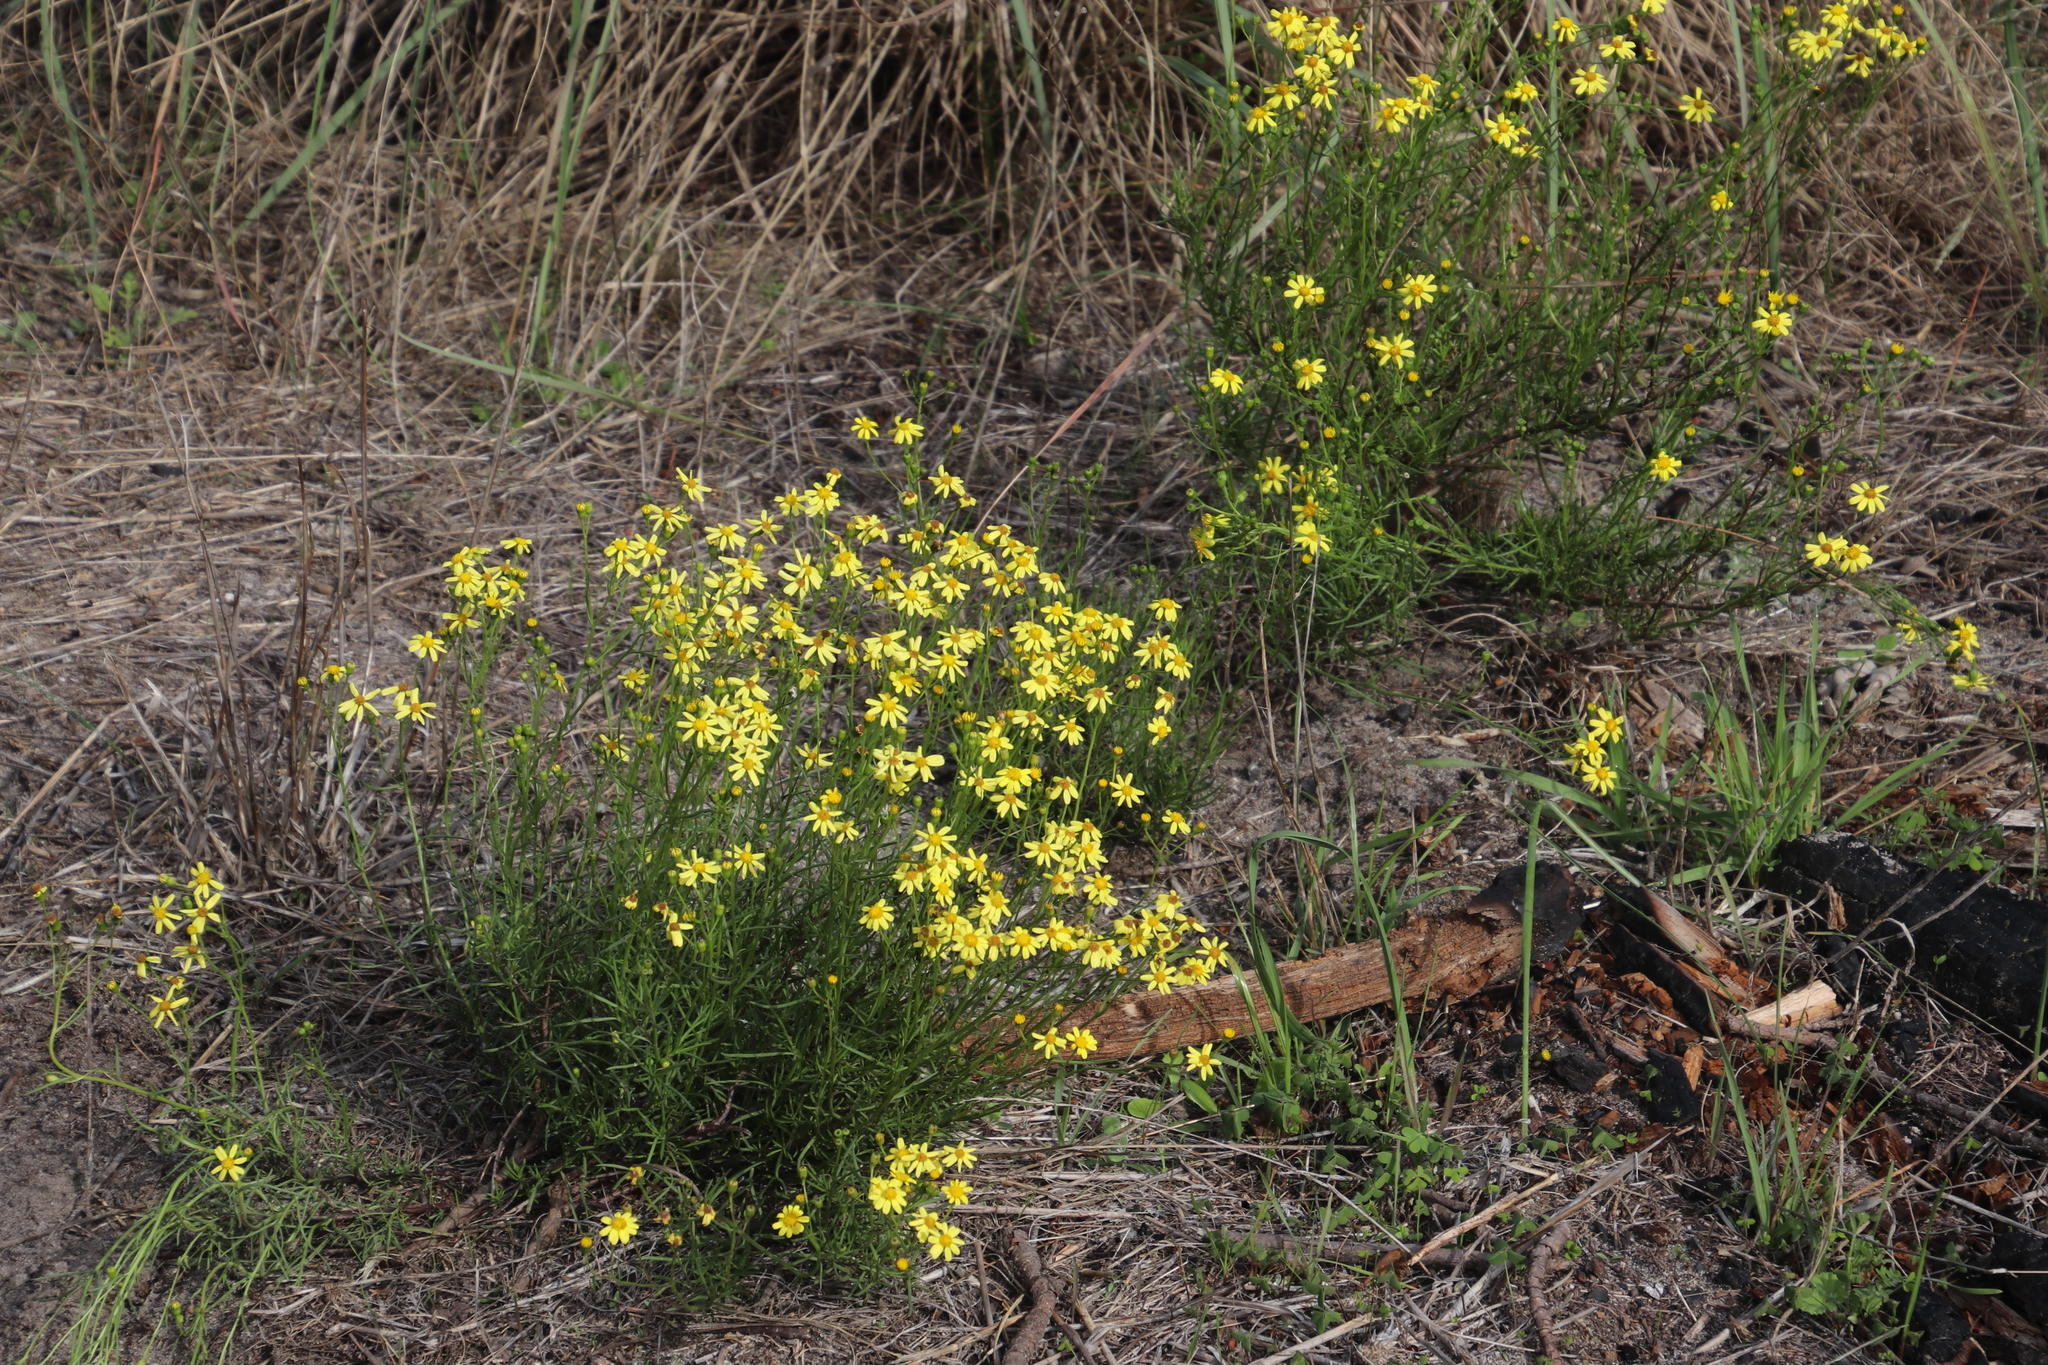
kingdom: Plantae
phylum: Tracheophyta
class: Magnoliopsida
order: Asterales
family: Asteraceae
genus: Senecio
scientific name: Senecio burchellii
